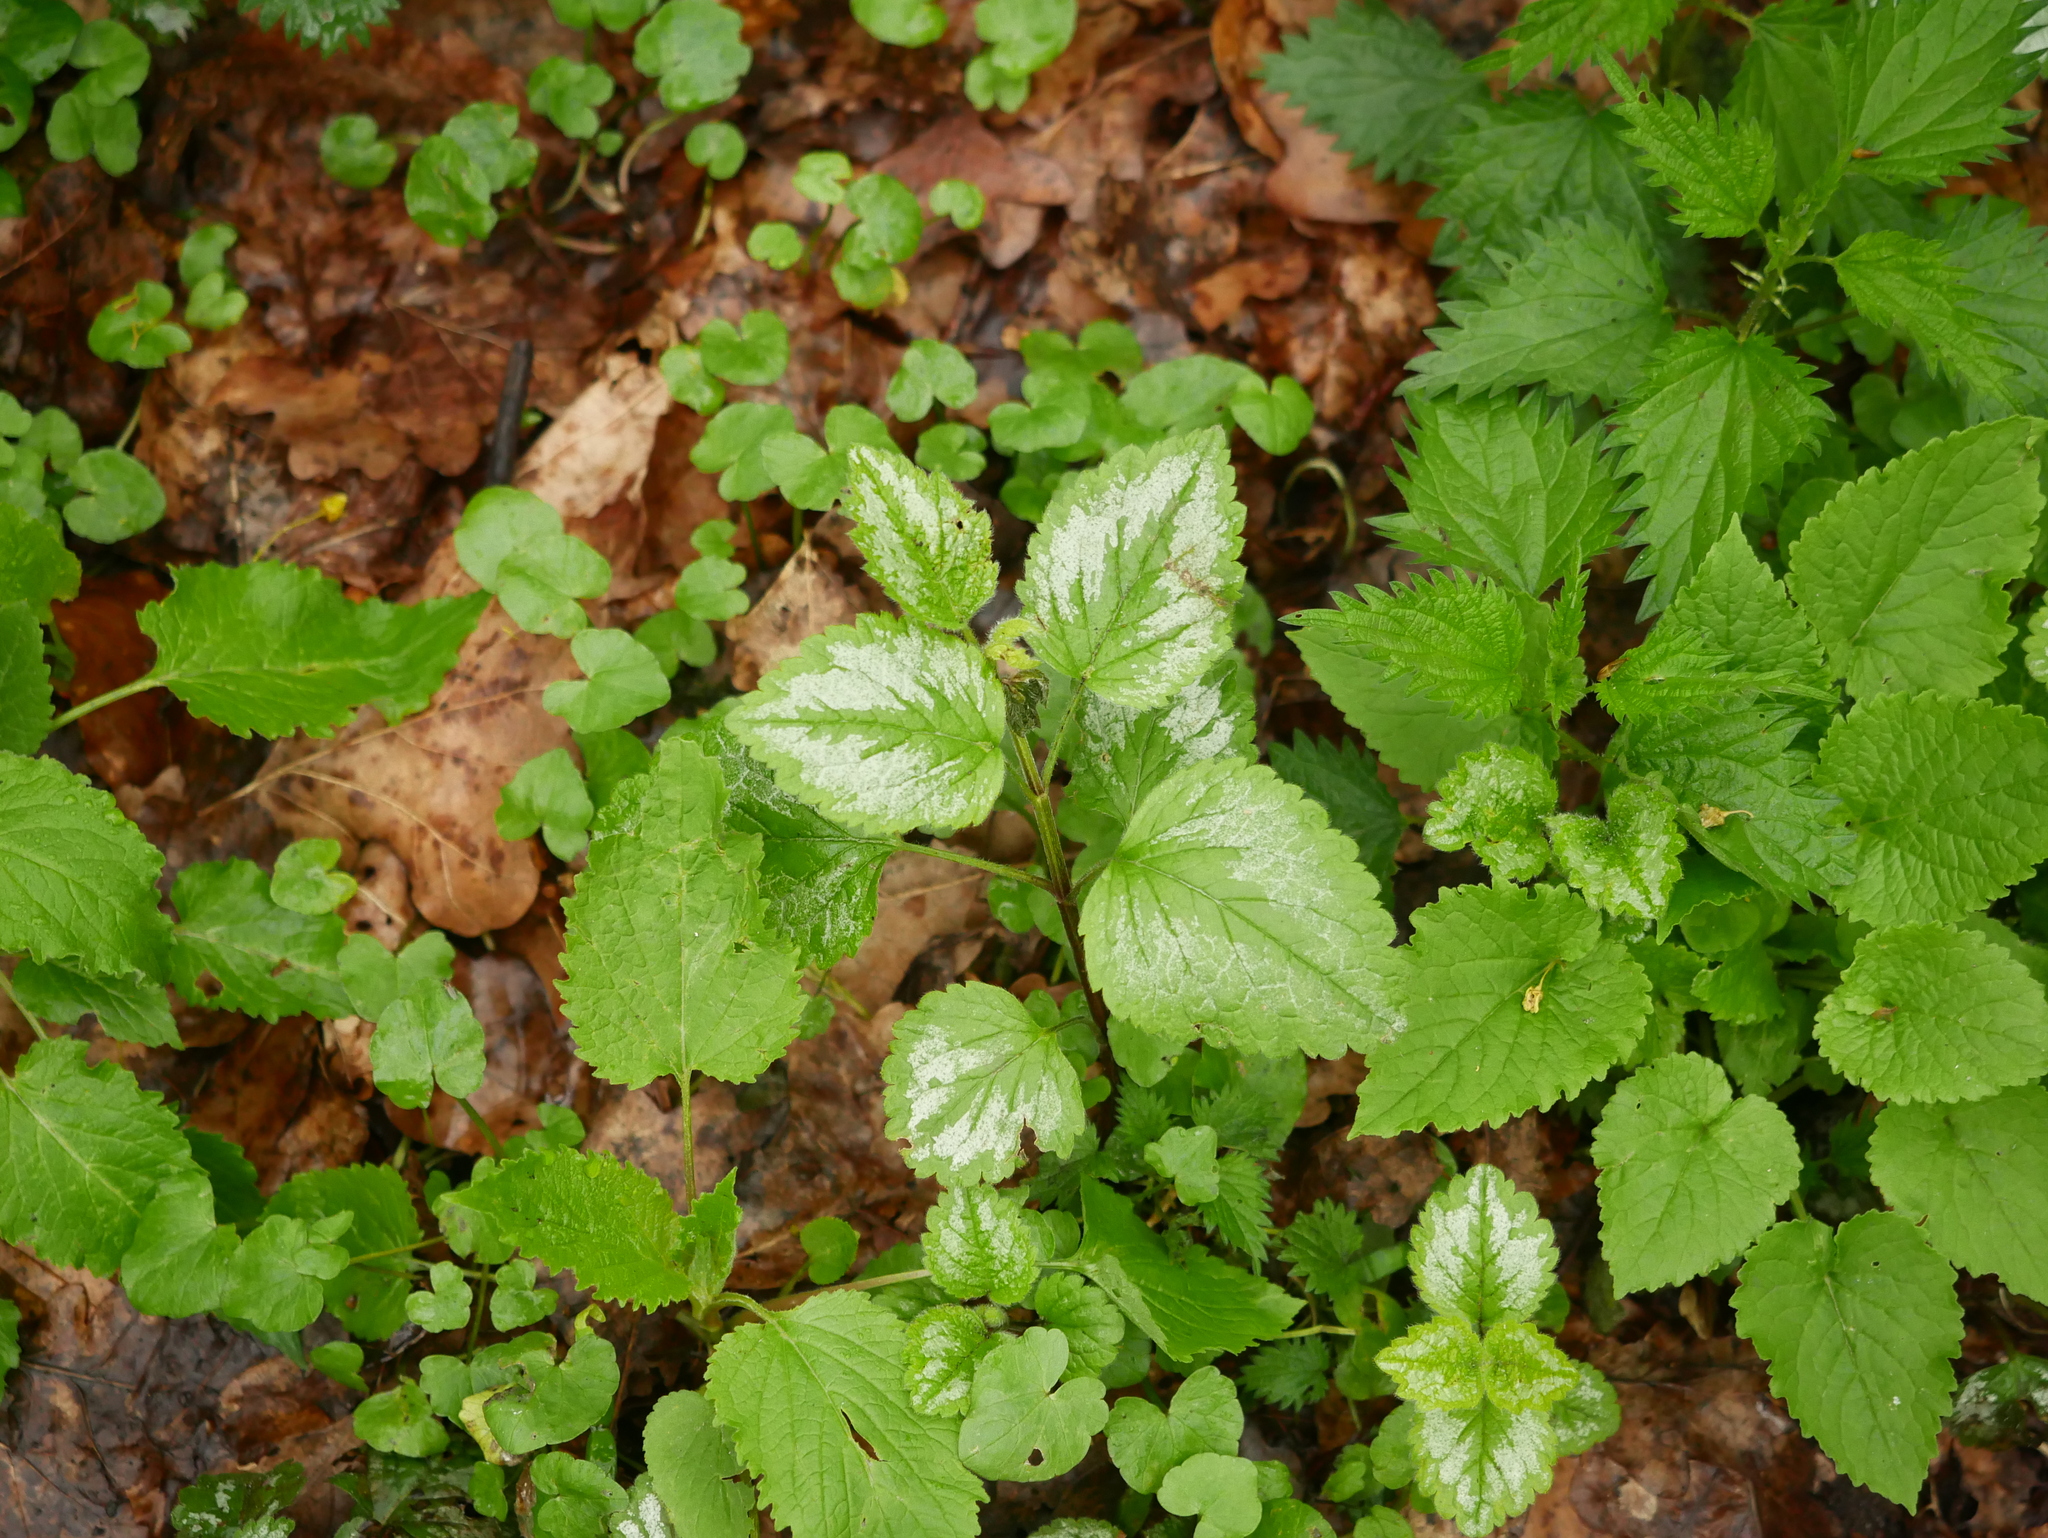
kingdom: Plantae
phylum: Tracheophyta
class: Magnoliopsida
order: Lamiales
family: Lamiaceae
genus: Lamium
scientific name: Lamium galeobdolon
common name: Yellow archangel
